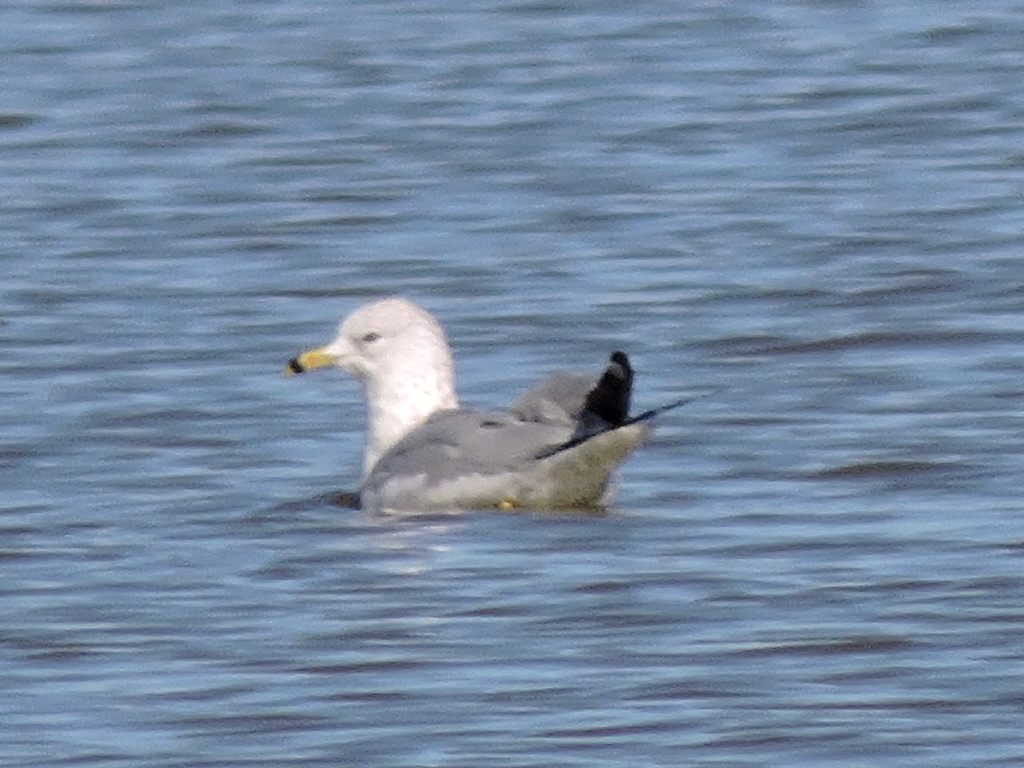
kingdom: Animalia
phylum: Chordata
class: Aves
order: Charadriiformes
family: Laridae
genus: Larus
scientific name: Larus delawarensis
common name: Ring-billed gull
